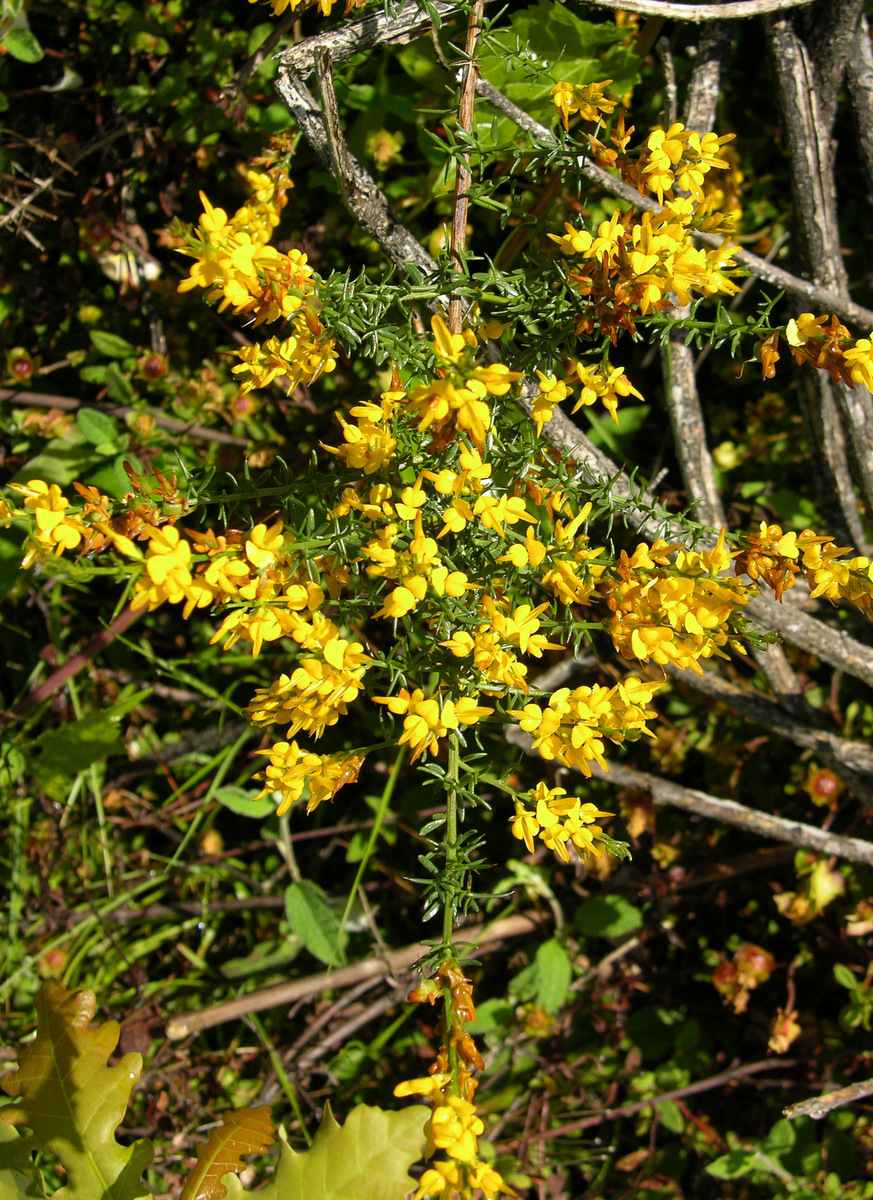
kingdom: Plantae
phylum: Tracheophyta
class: Magnoliopsida
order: Fabales
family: Fabaceae
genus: Genista
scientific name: Genista triacanthos
